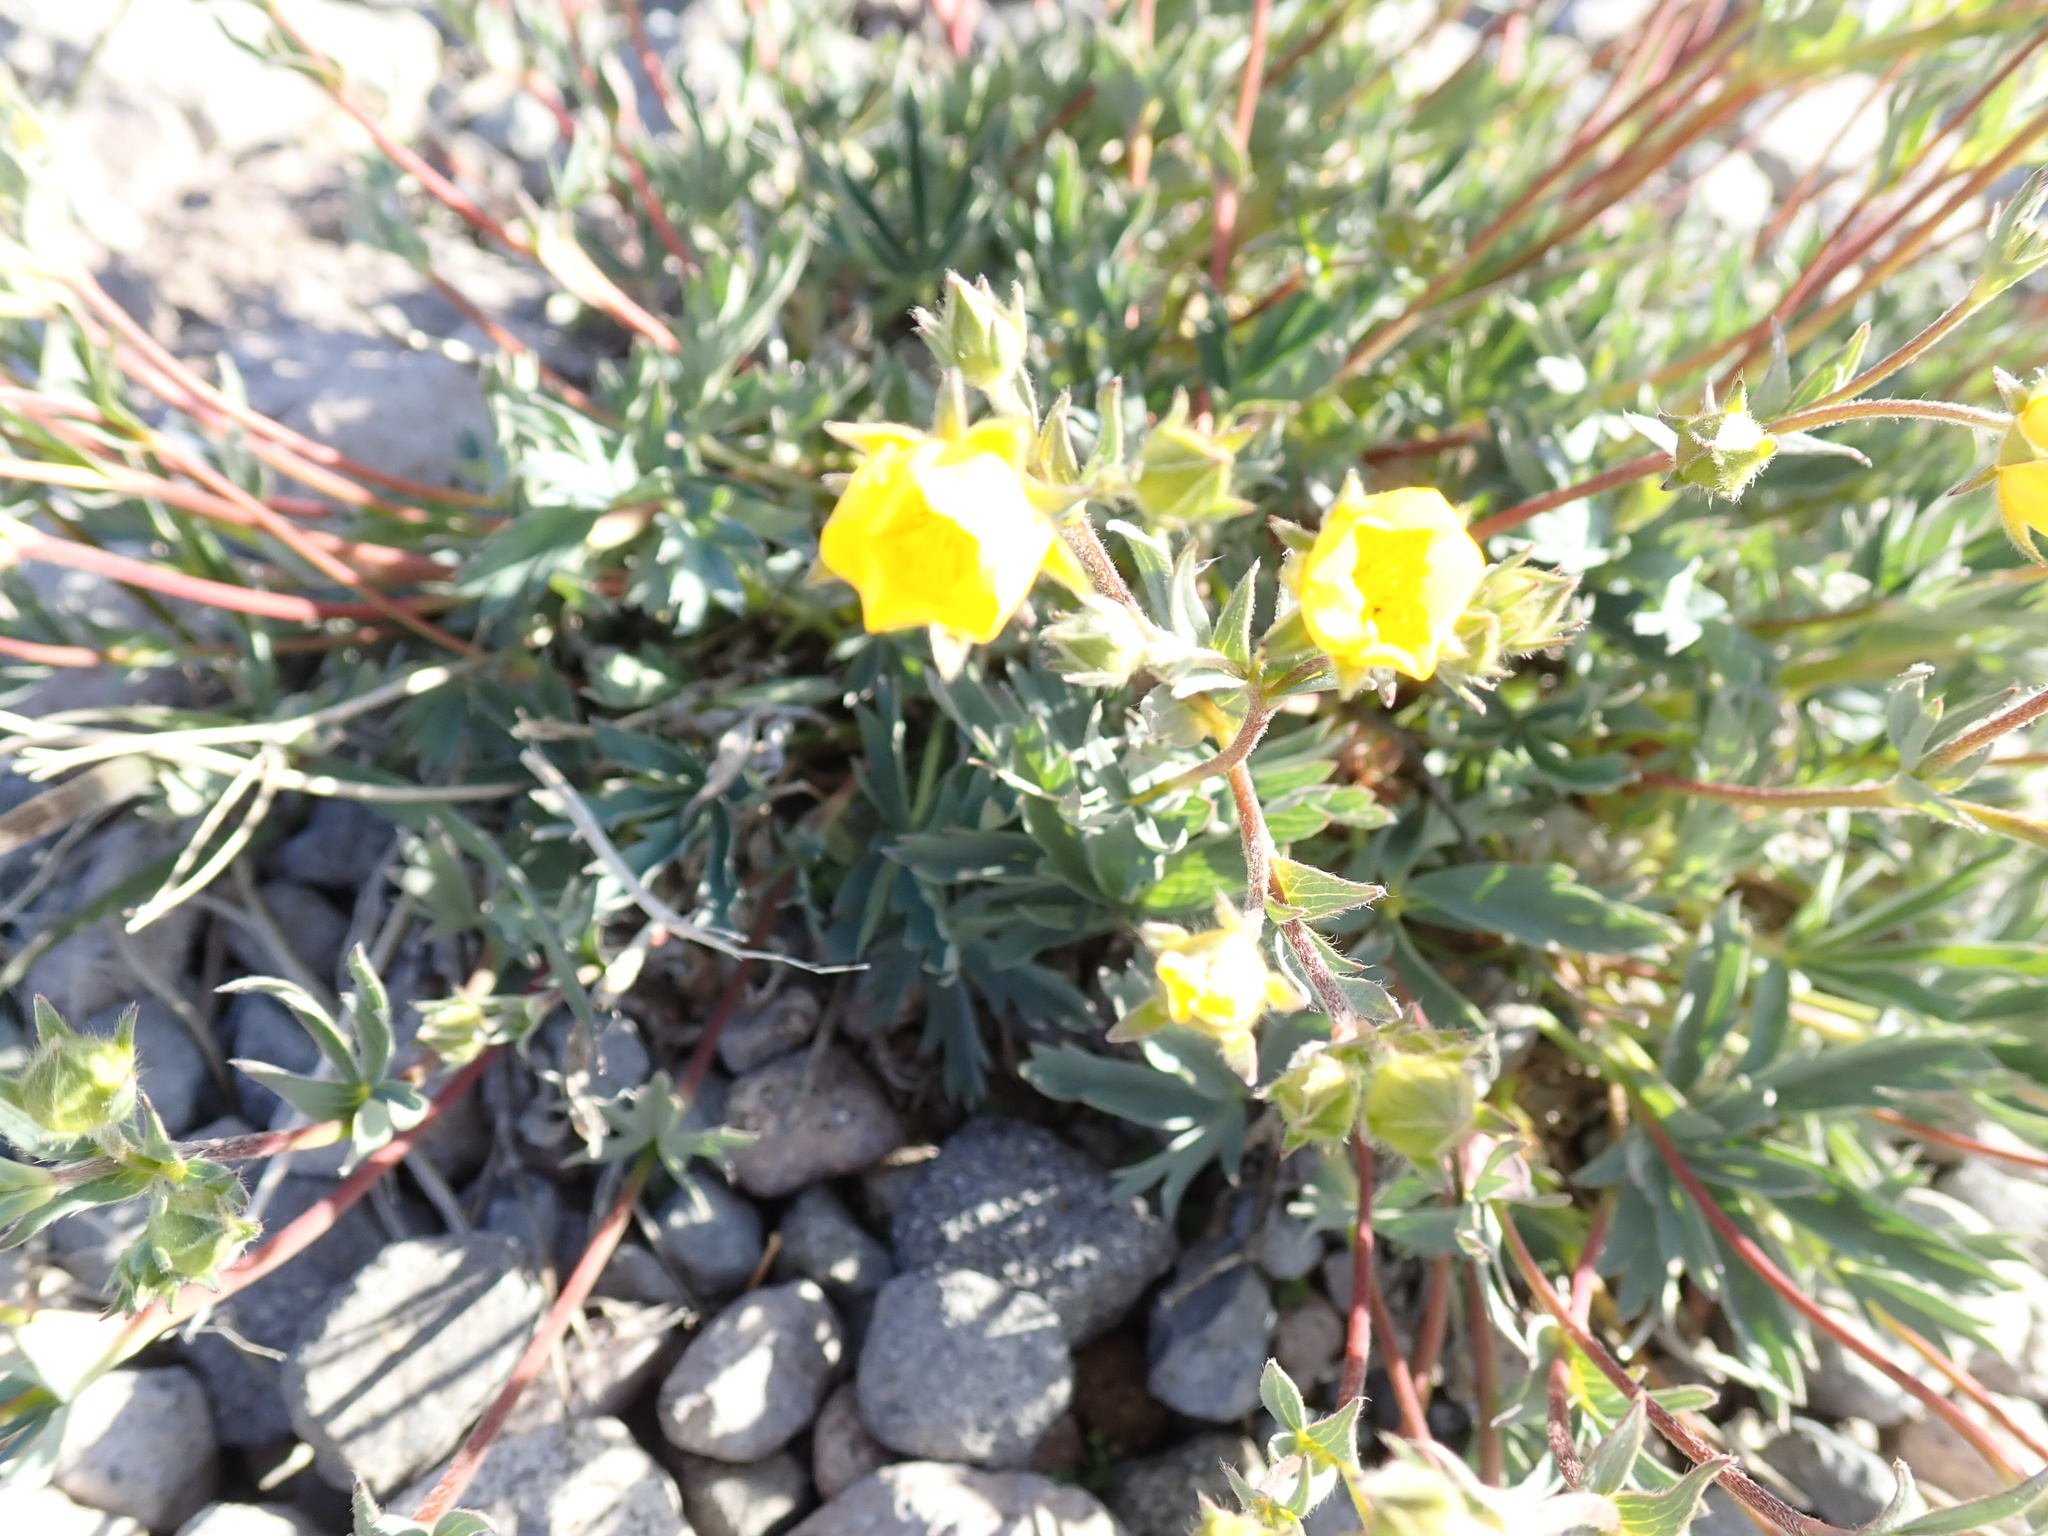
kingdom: Plantae
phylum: Tracheophyta
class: Magnoliopsida
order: Rosales
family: Rosaceae
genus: Dasiphora
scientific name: Dasiphora fruticosa
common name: Shrubby cinquefoil
